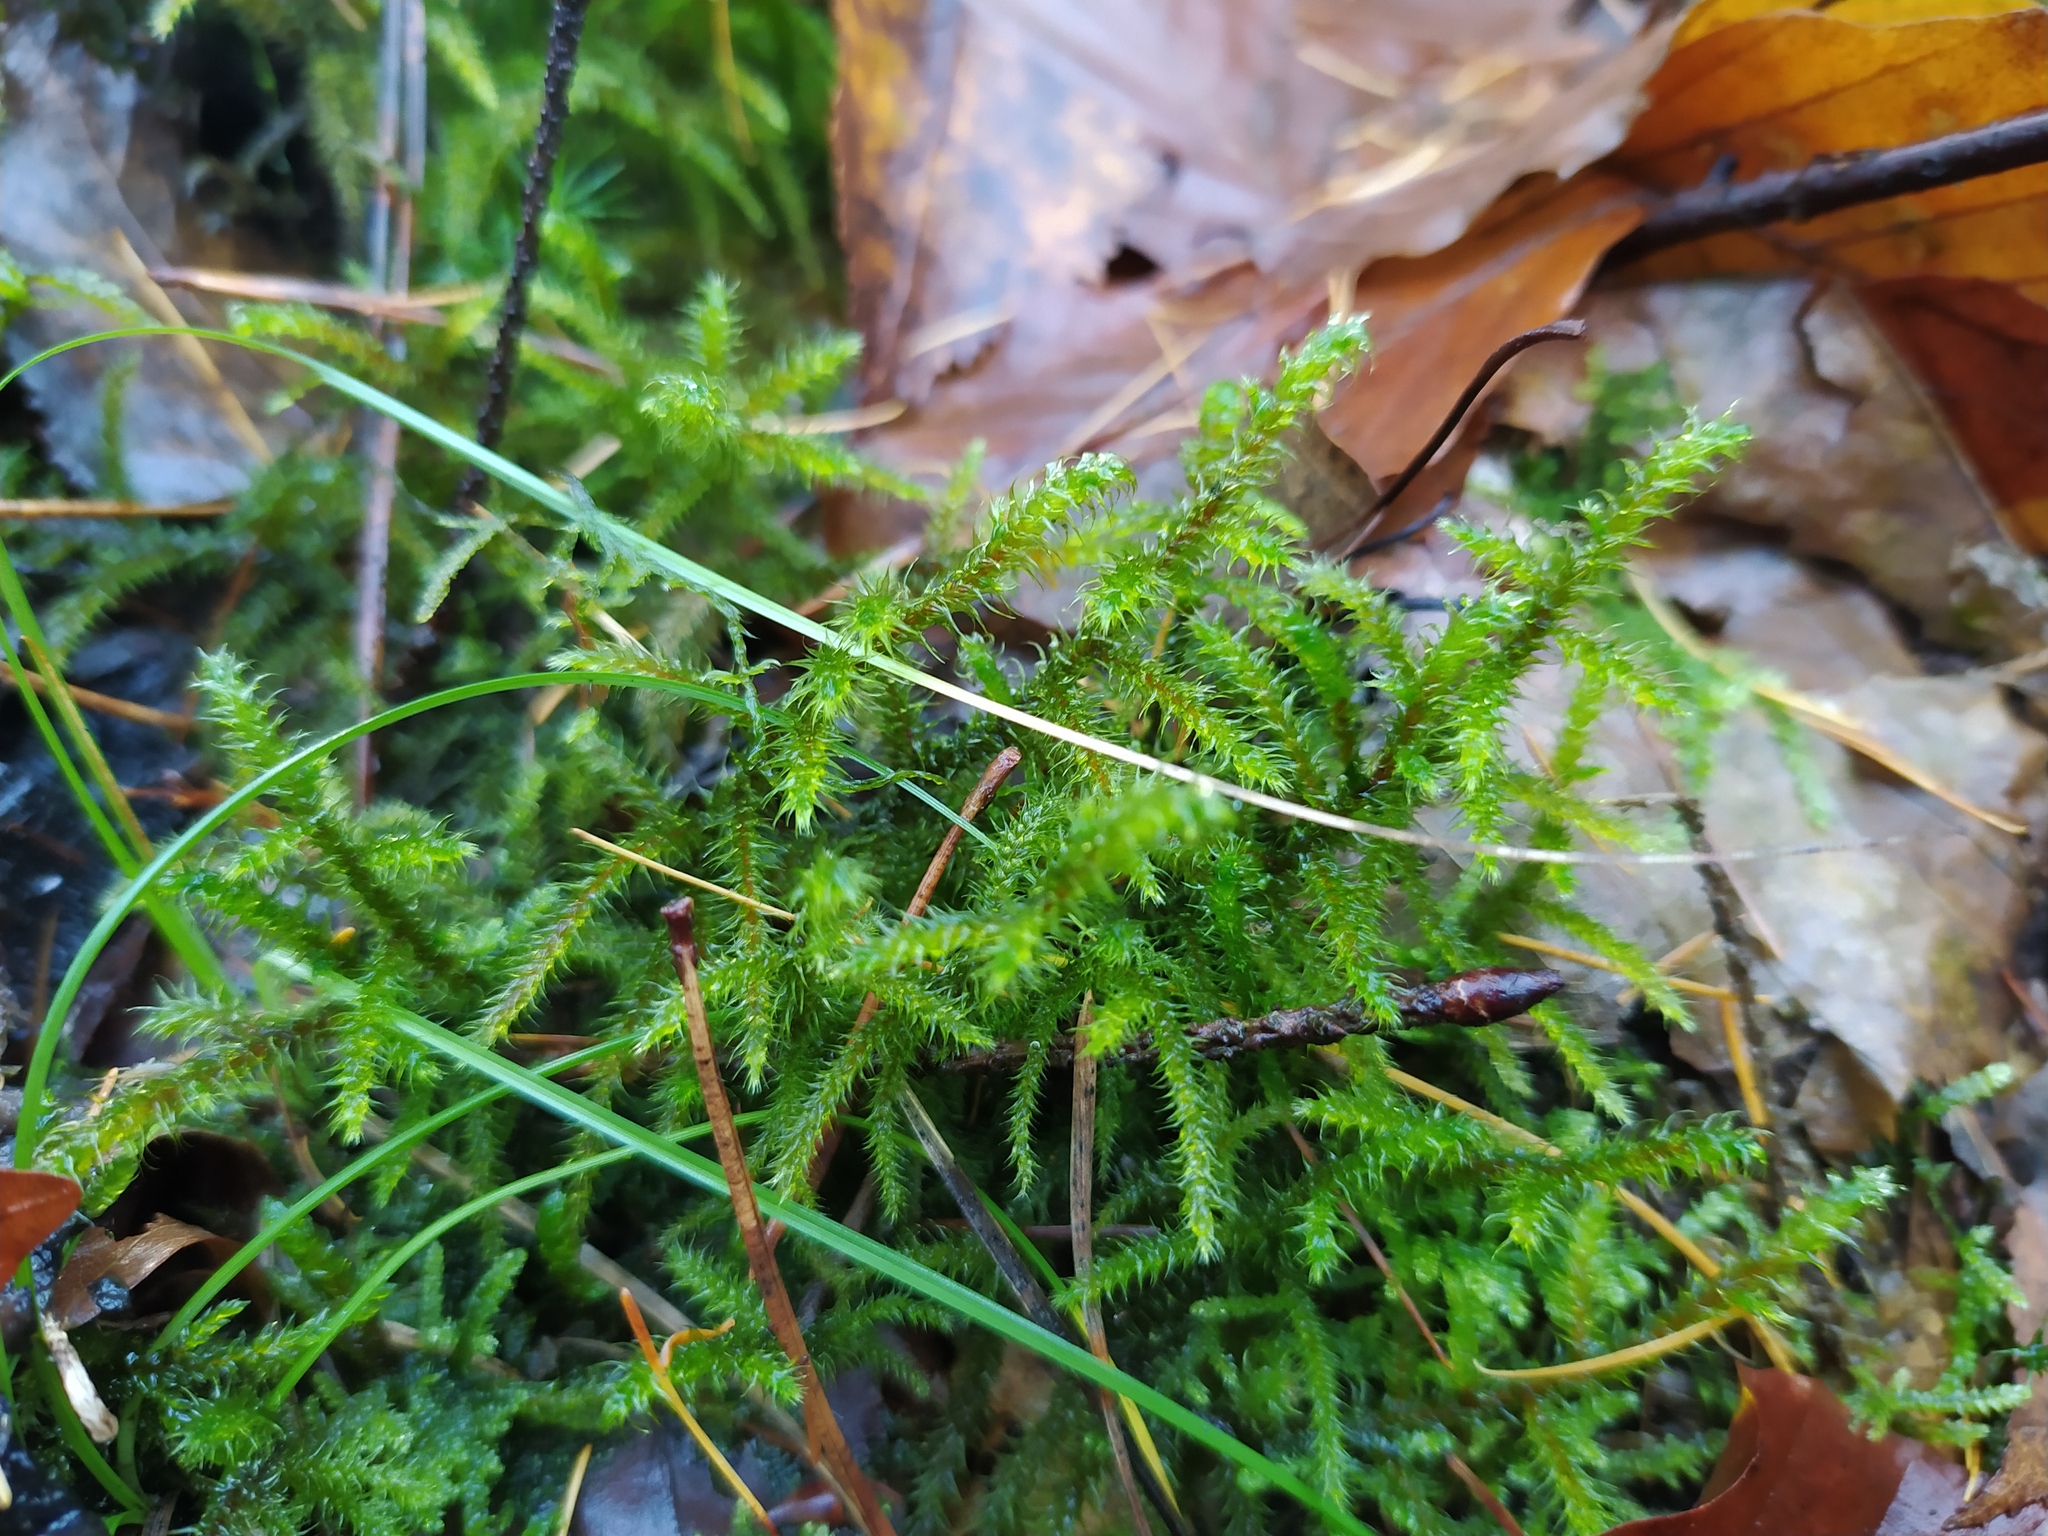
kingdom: Plantae
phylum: Bryophyta
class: Bryopsida
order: Hypnales
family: Hylocomiaceae
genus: Rhytidiadelphus
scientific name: Rhytidiadelphus loreus
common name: Lanky moss
